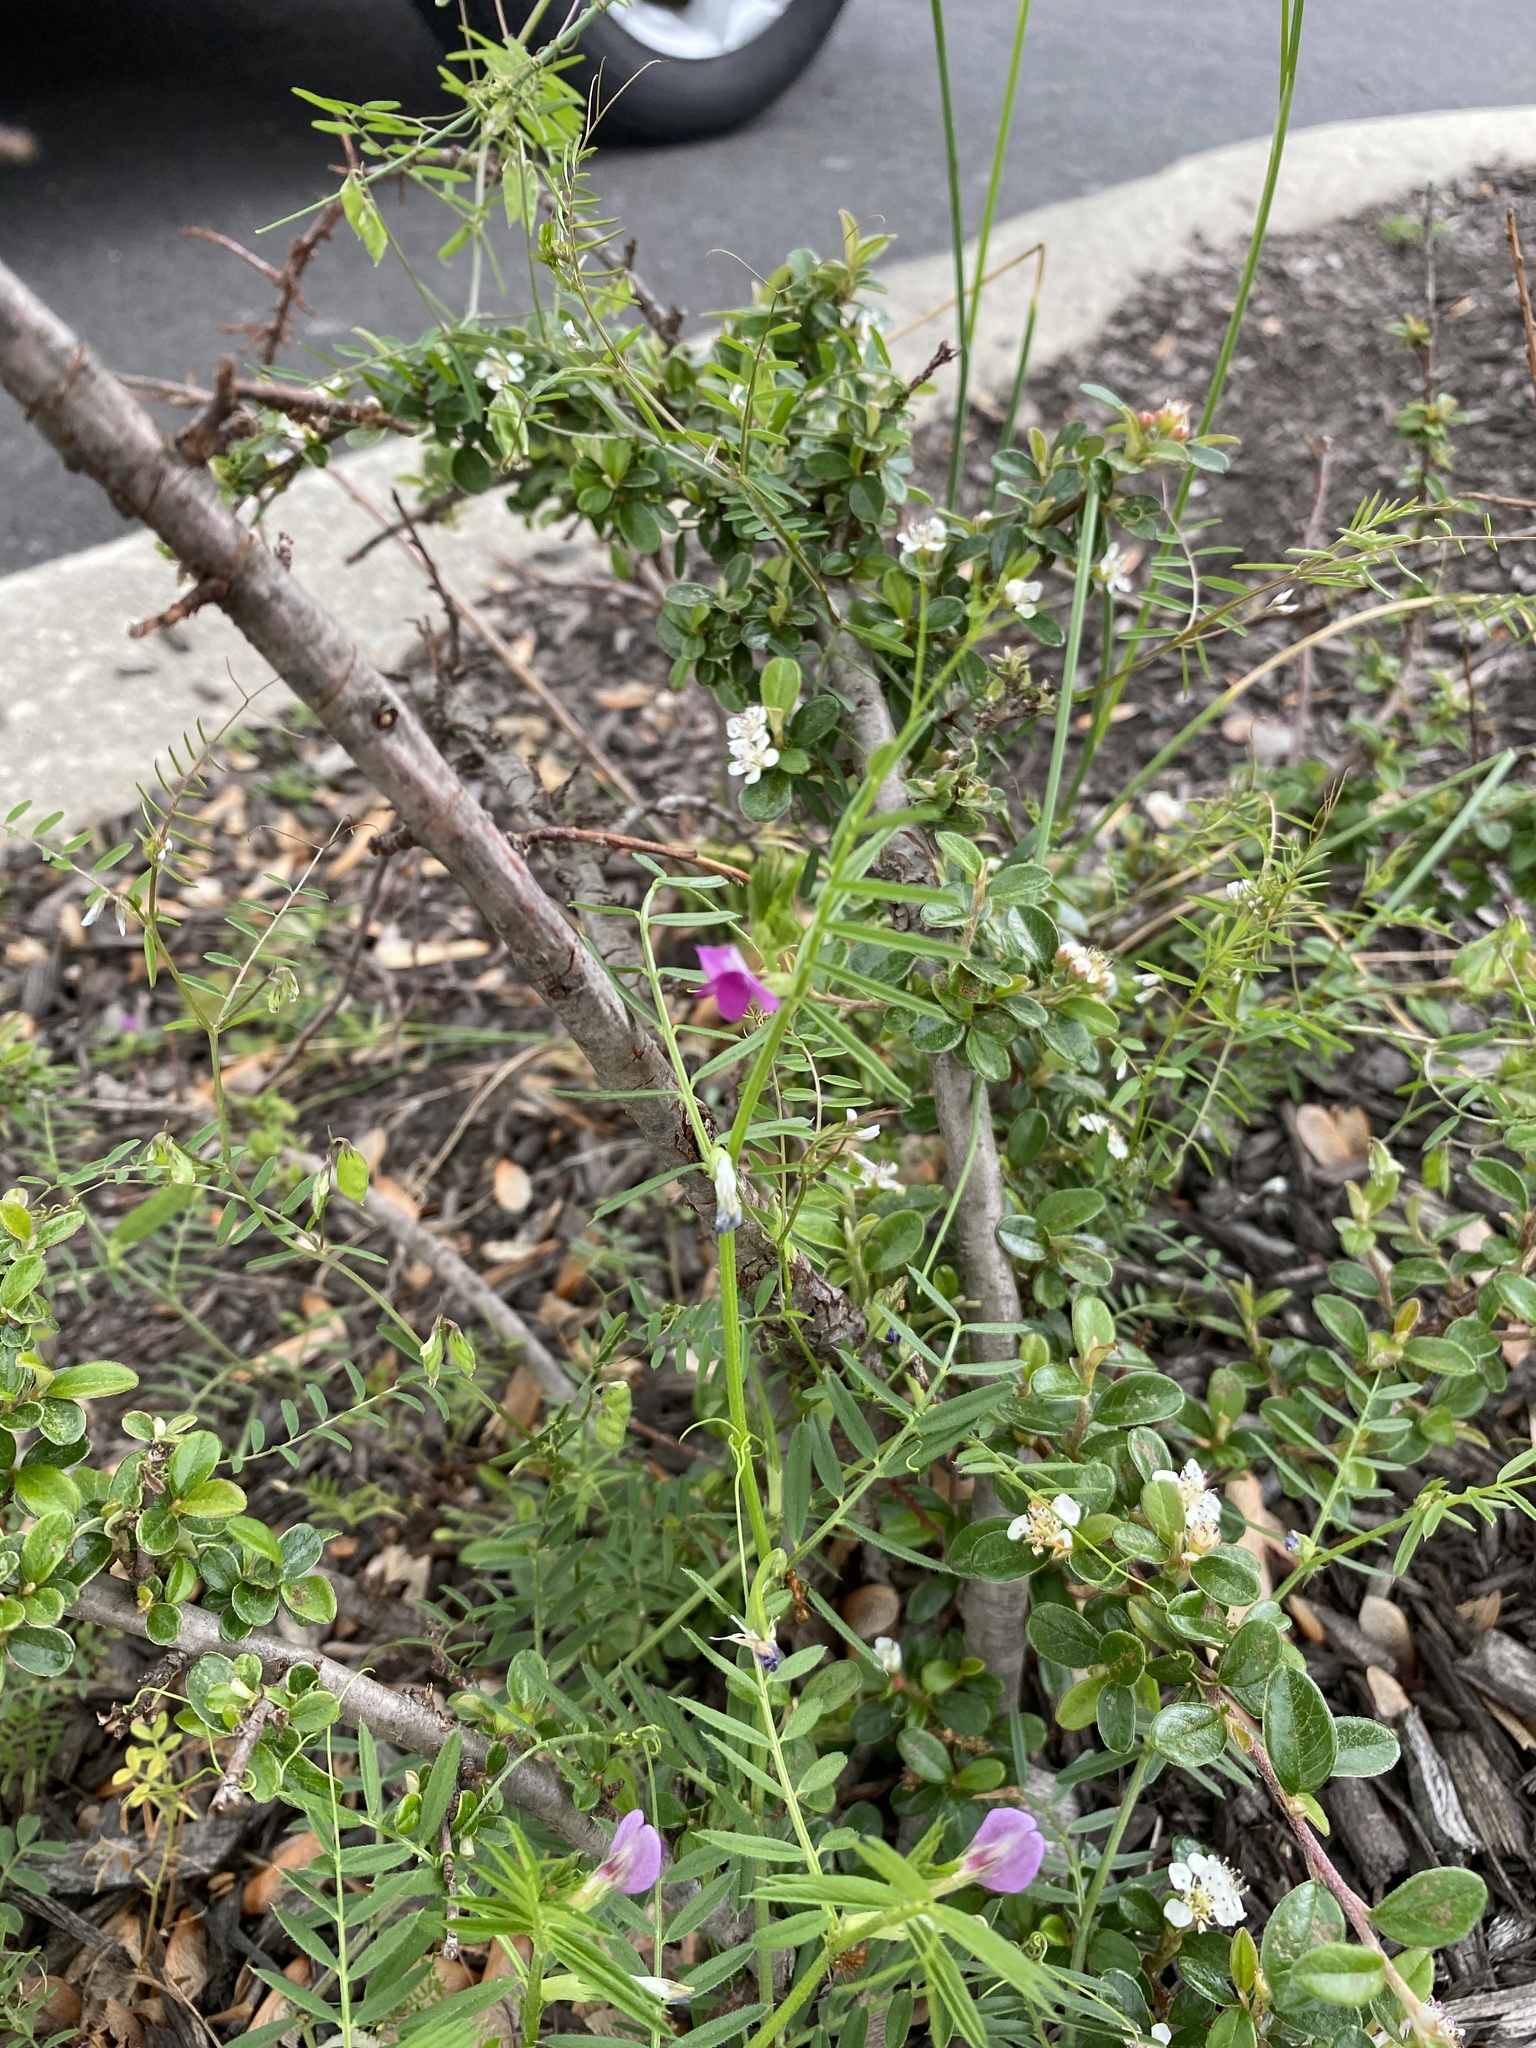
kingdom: Plantae
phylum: Tracheophyta
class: Magnoliopsida
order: Fabales
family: Fabaceae
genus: Vicia
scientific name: Vicia sativa
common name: Garden vetch
